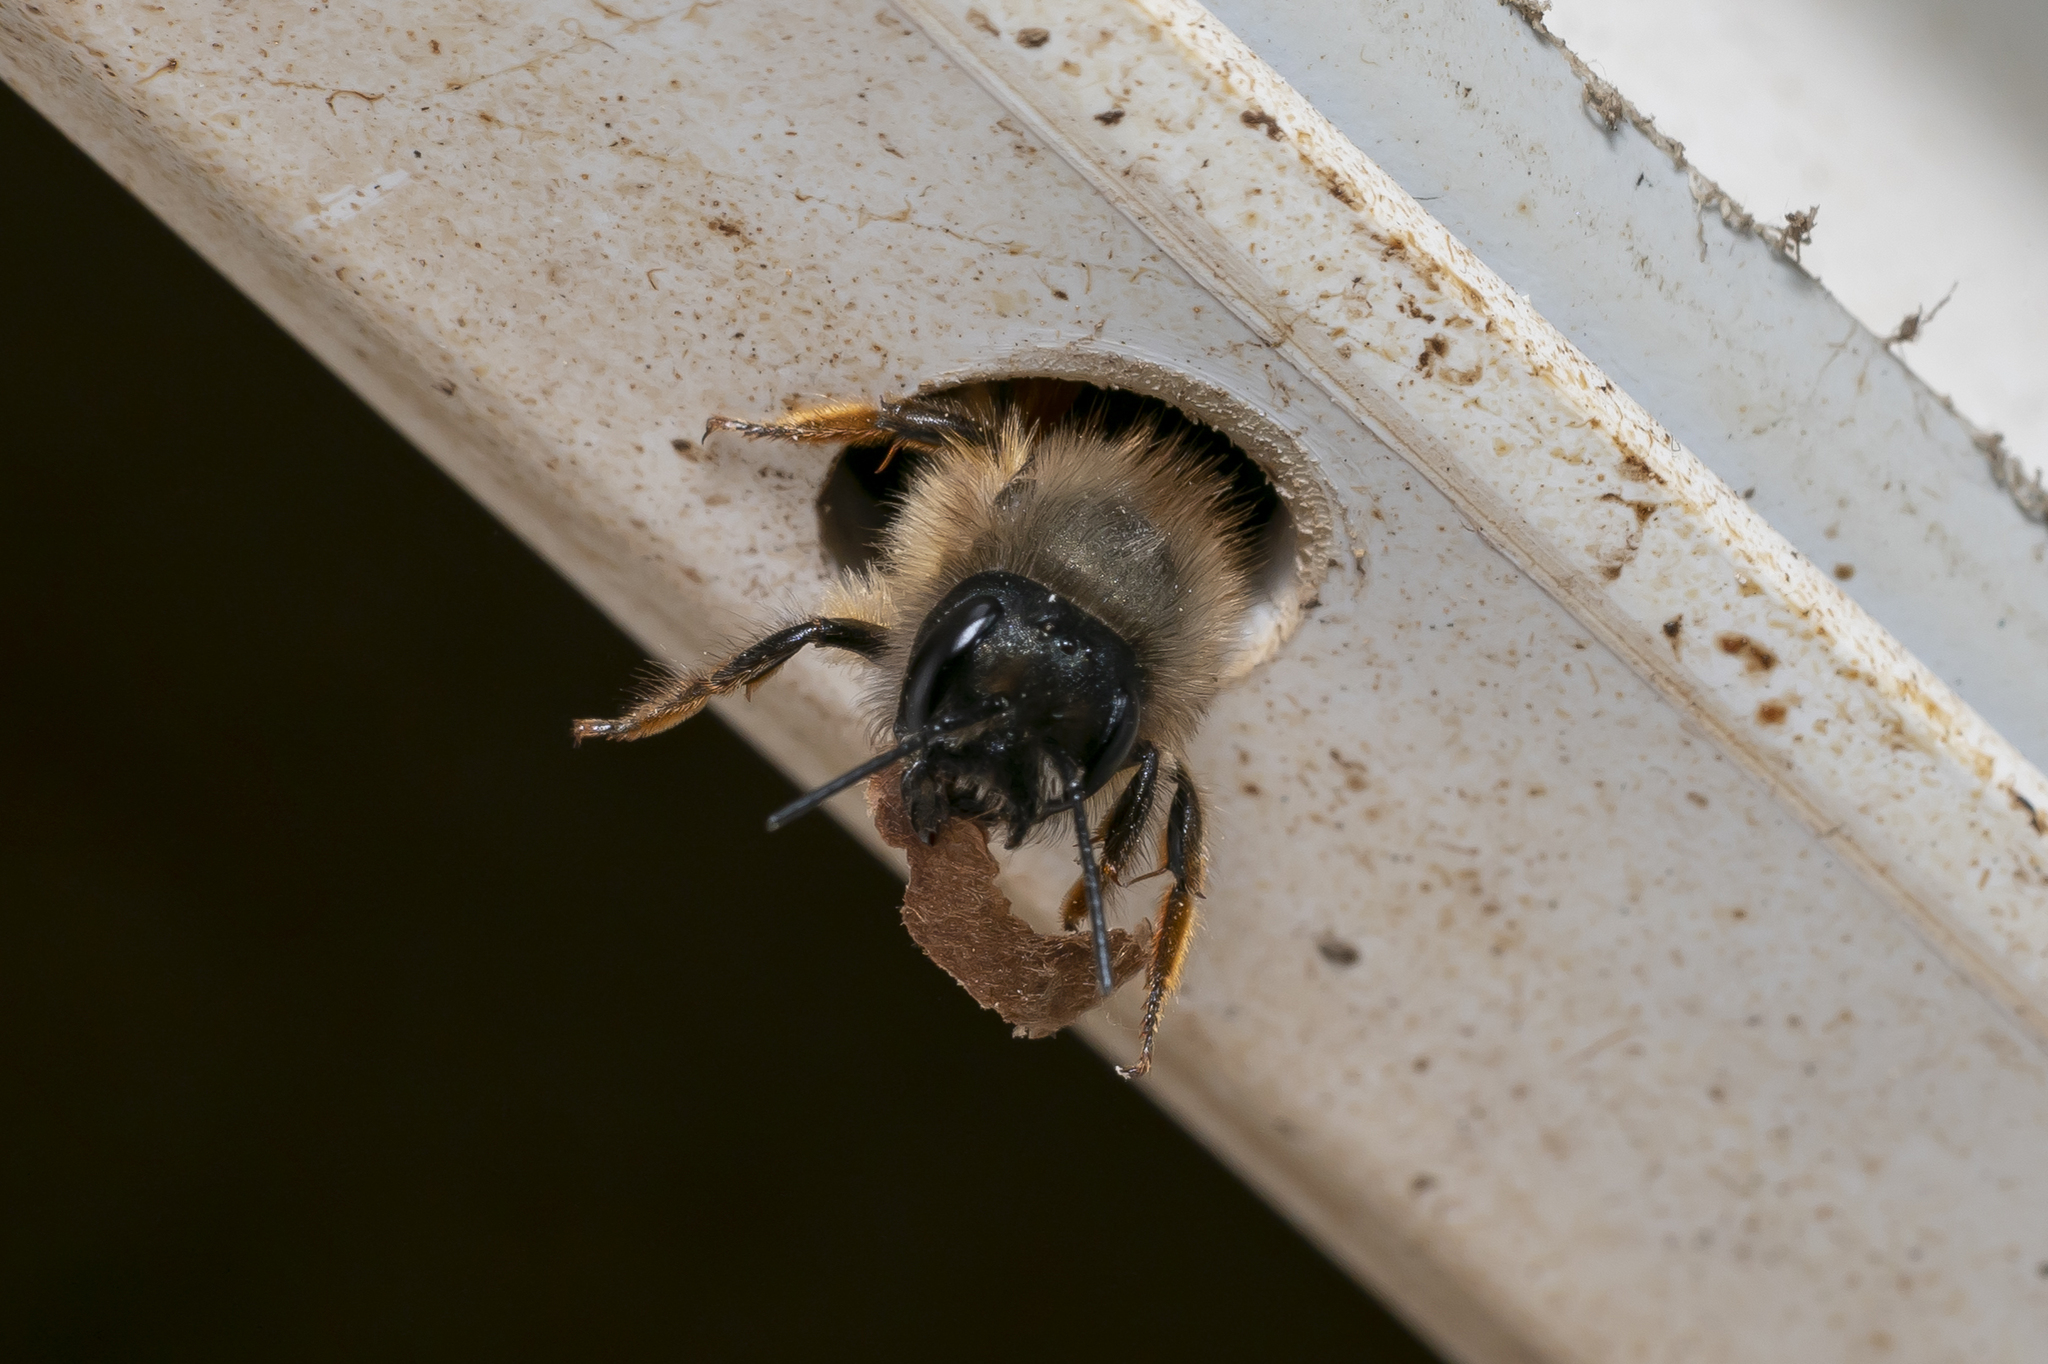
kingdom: Animalia
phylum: Arthropoda
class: Insecta
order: Hymenoptera
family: Megachilidae
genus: Osmia
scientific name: Osmia bicornis
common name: Red mason bee
